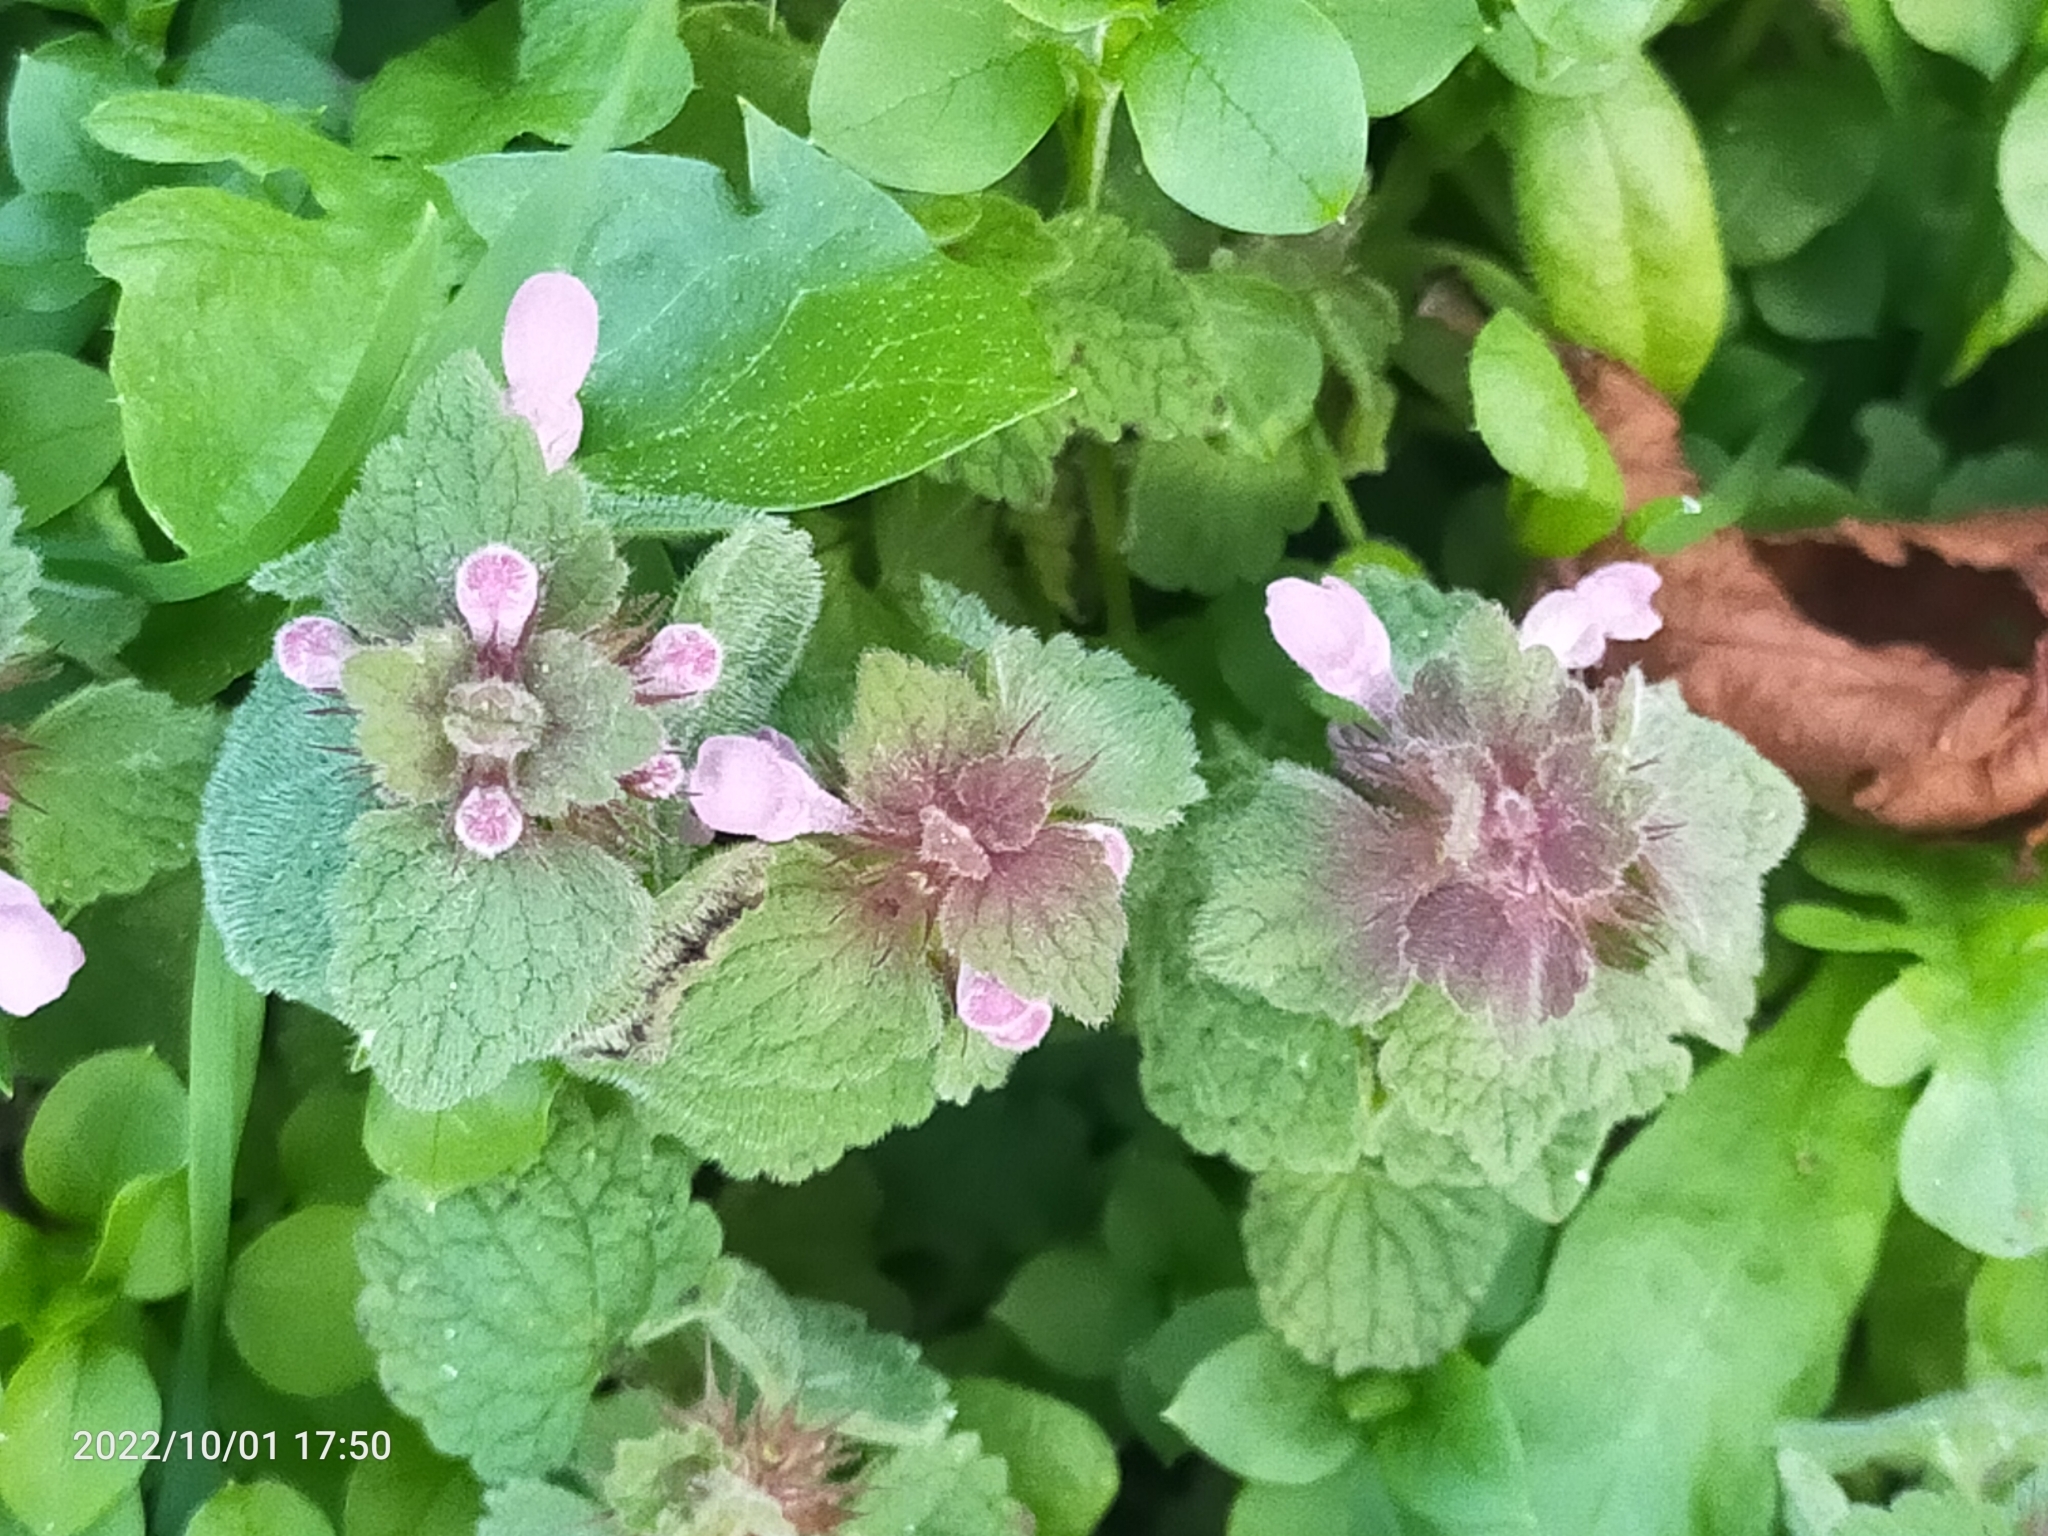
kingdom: Plantae
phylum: Tracheophyta
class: Magnoliopsida
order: Lamiales
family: Lamiaceae
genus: Lamium
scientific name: Lamium purpureum
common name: Red dead-nettle
